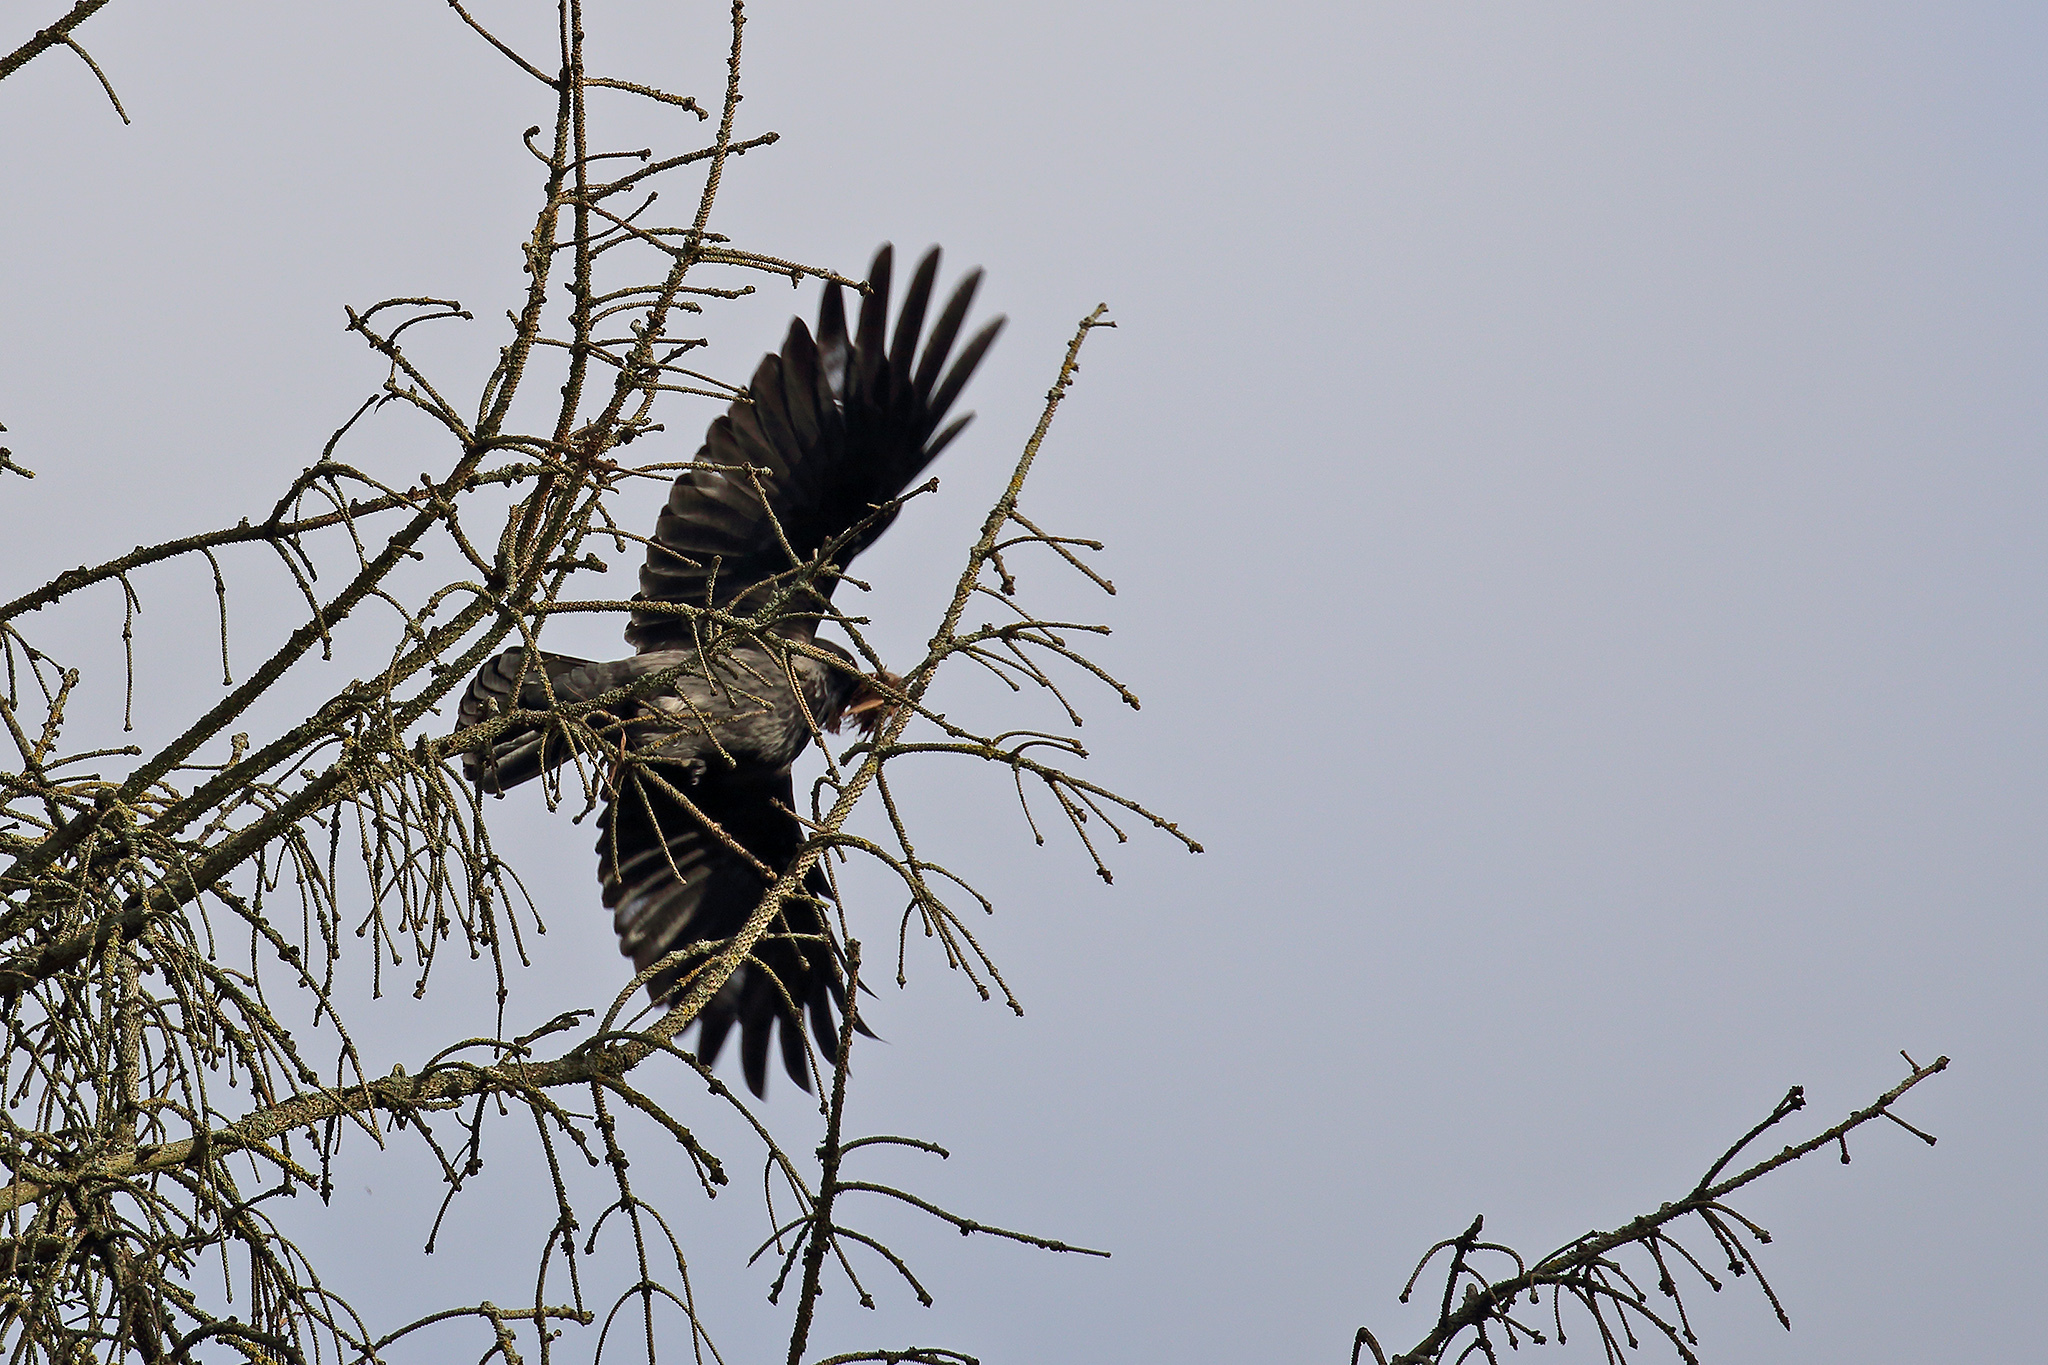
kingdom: Animalia
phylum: Chordata
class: Aves
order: Passeriformes
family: Corvidae
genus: Corvus
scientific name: Corvus cornix
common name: Hooded crow
